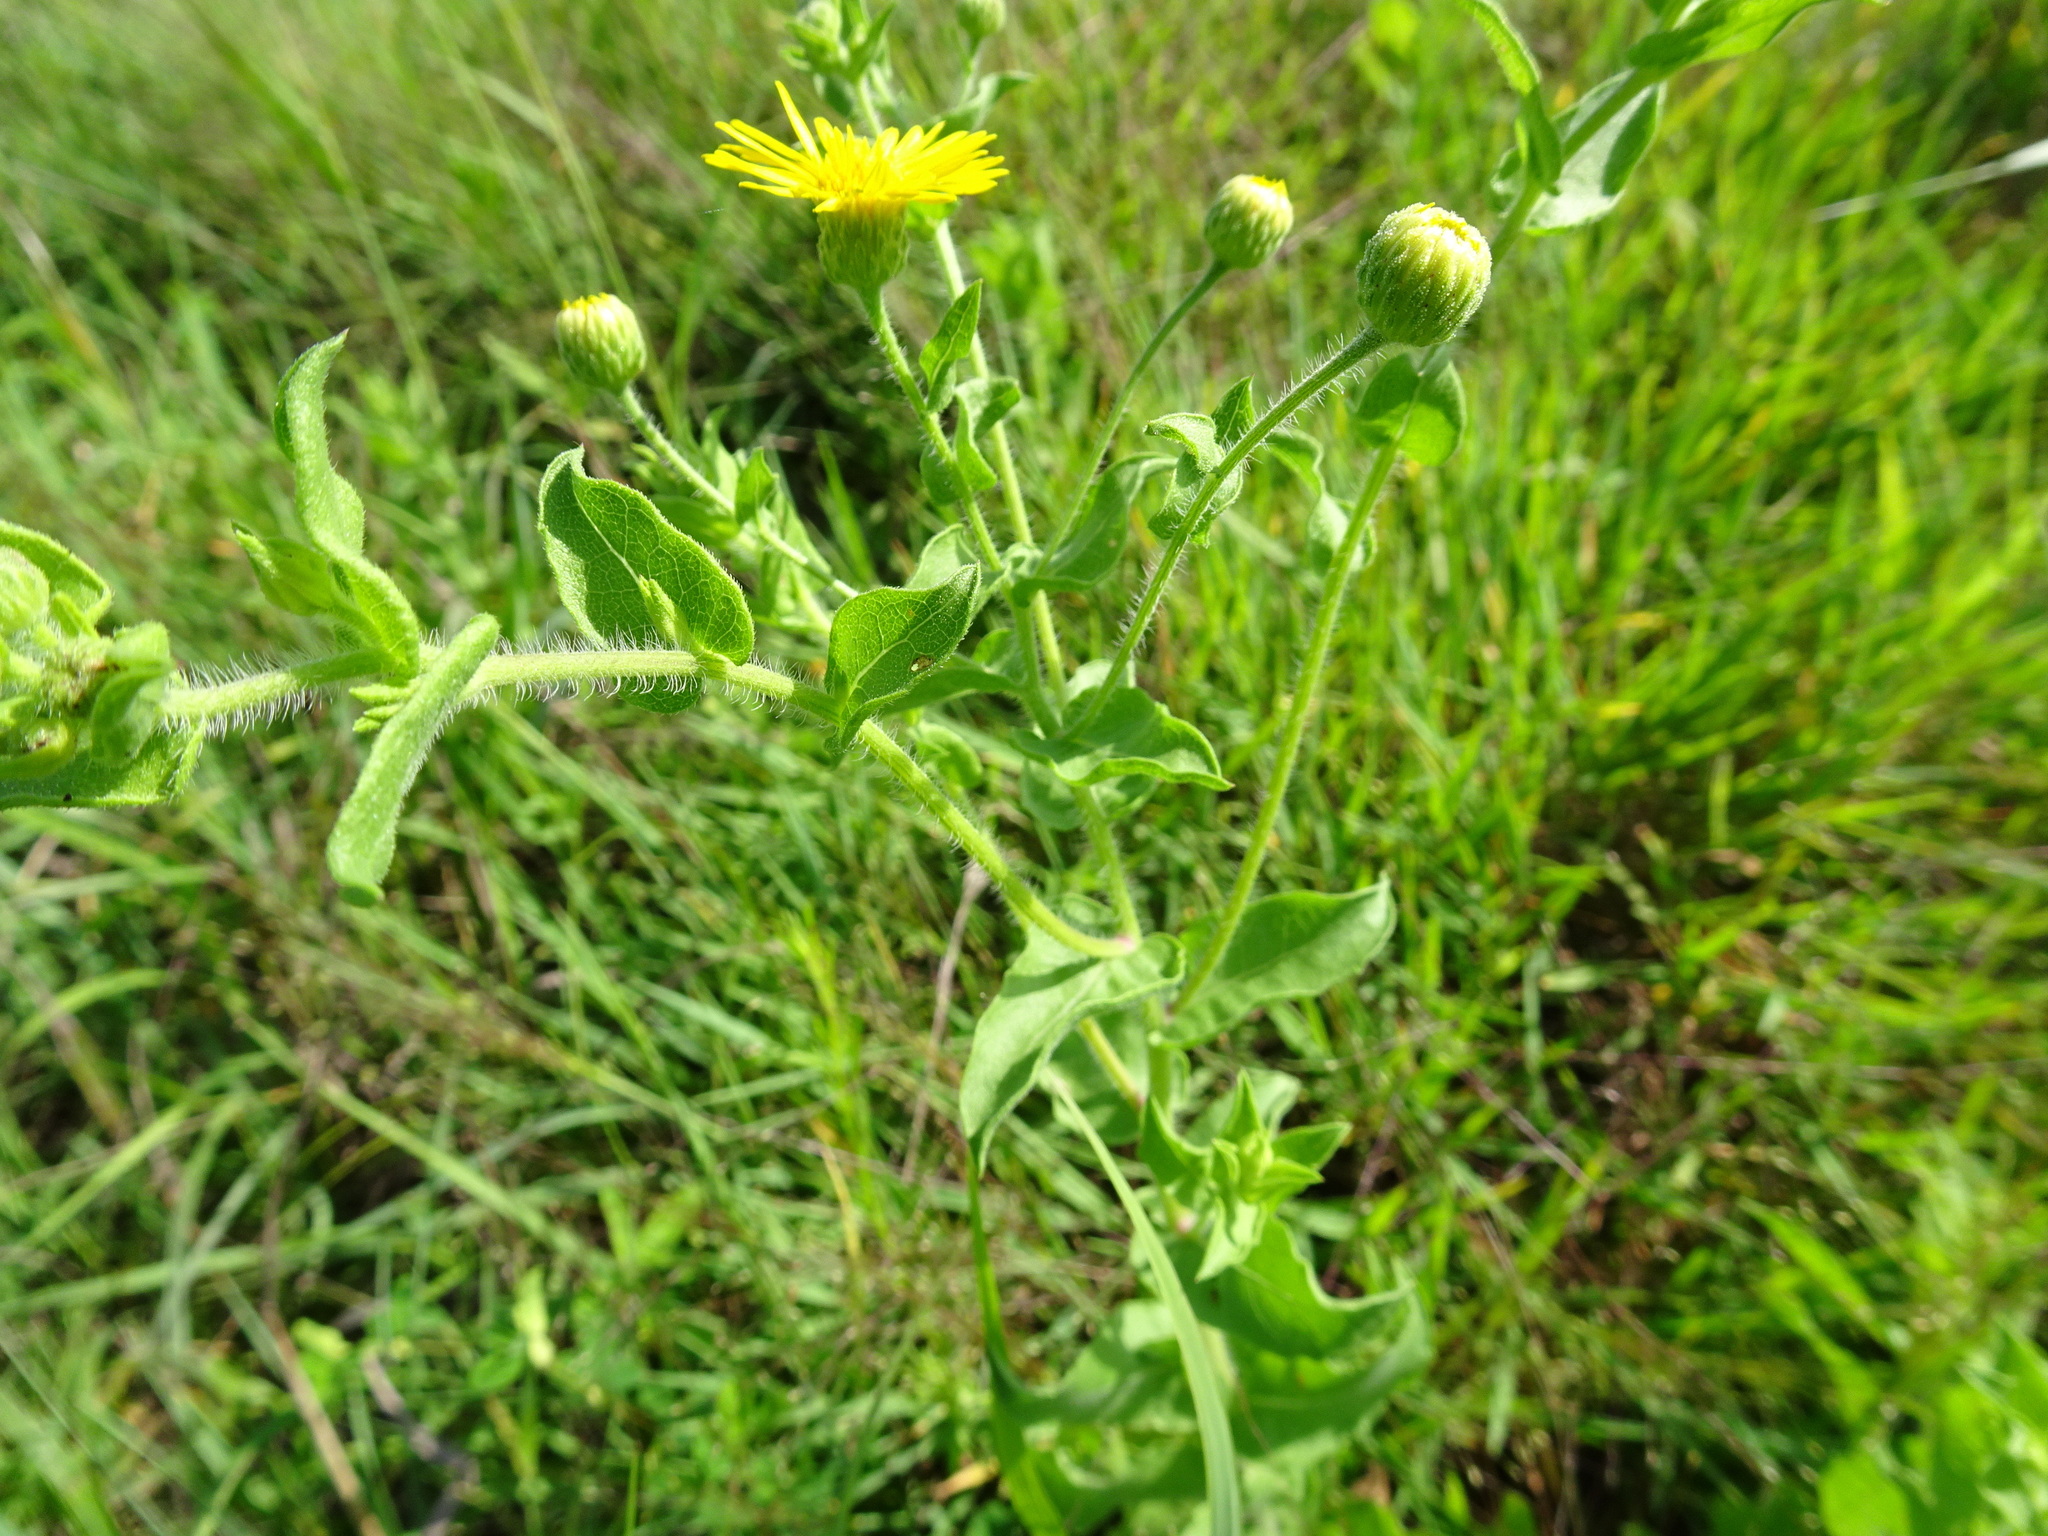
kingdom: Plantae
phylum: Tracheophyta
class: Magnoliopsida
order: Asterales
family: Asteraceae
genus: Heterotheca
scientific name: Heterotheca subaxillaris
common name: Camphorweed
